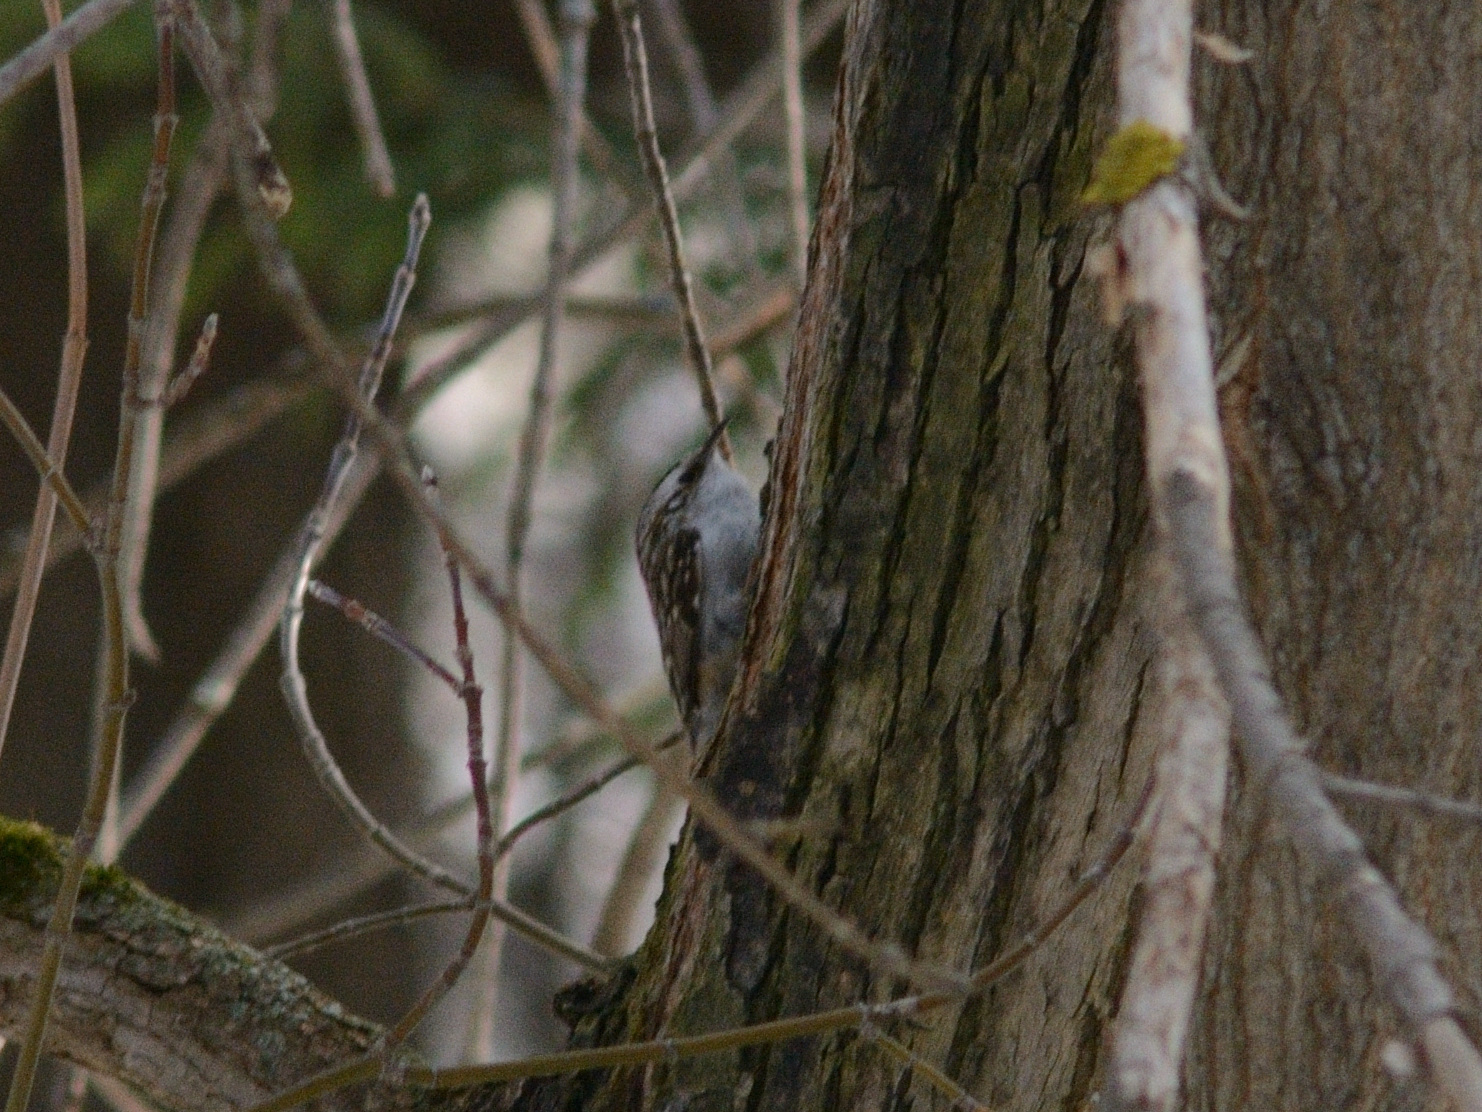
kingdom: Animalia
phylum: Chordata
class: Aves
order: Passeriformes
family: Certhiidae
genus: Certhia
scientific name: Certhia familiaris
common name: Eurasian treecreeper
